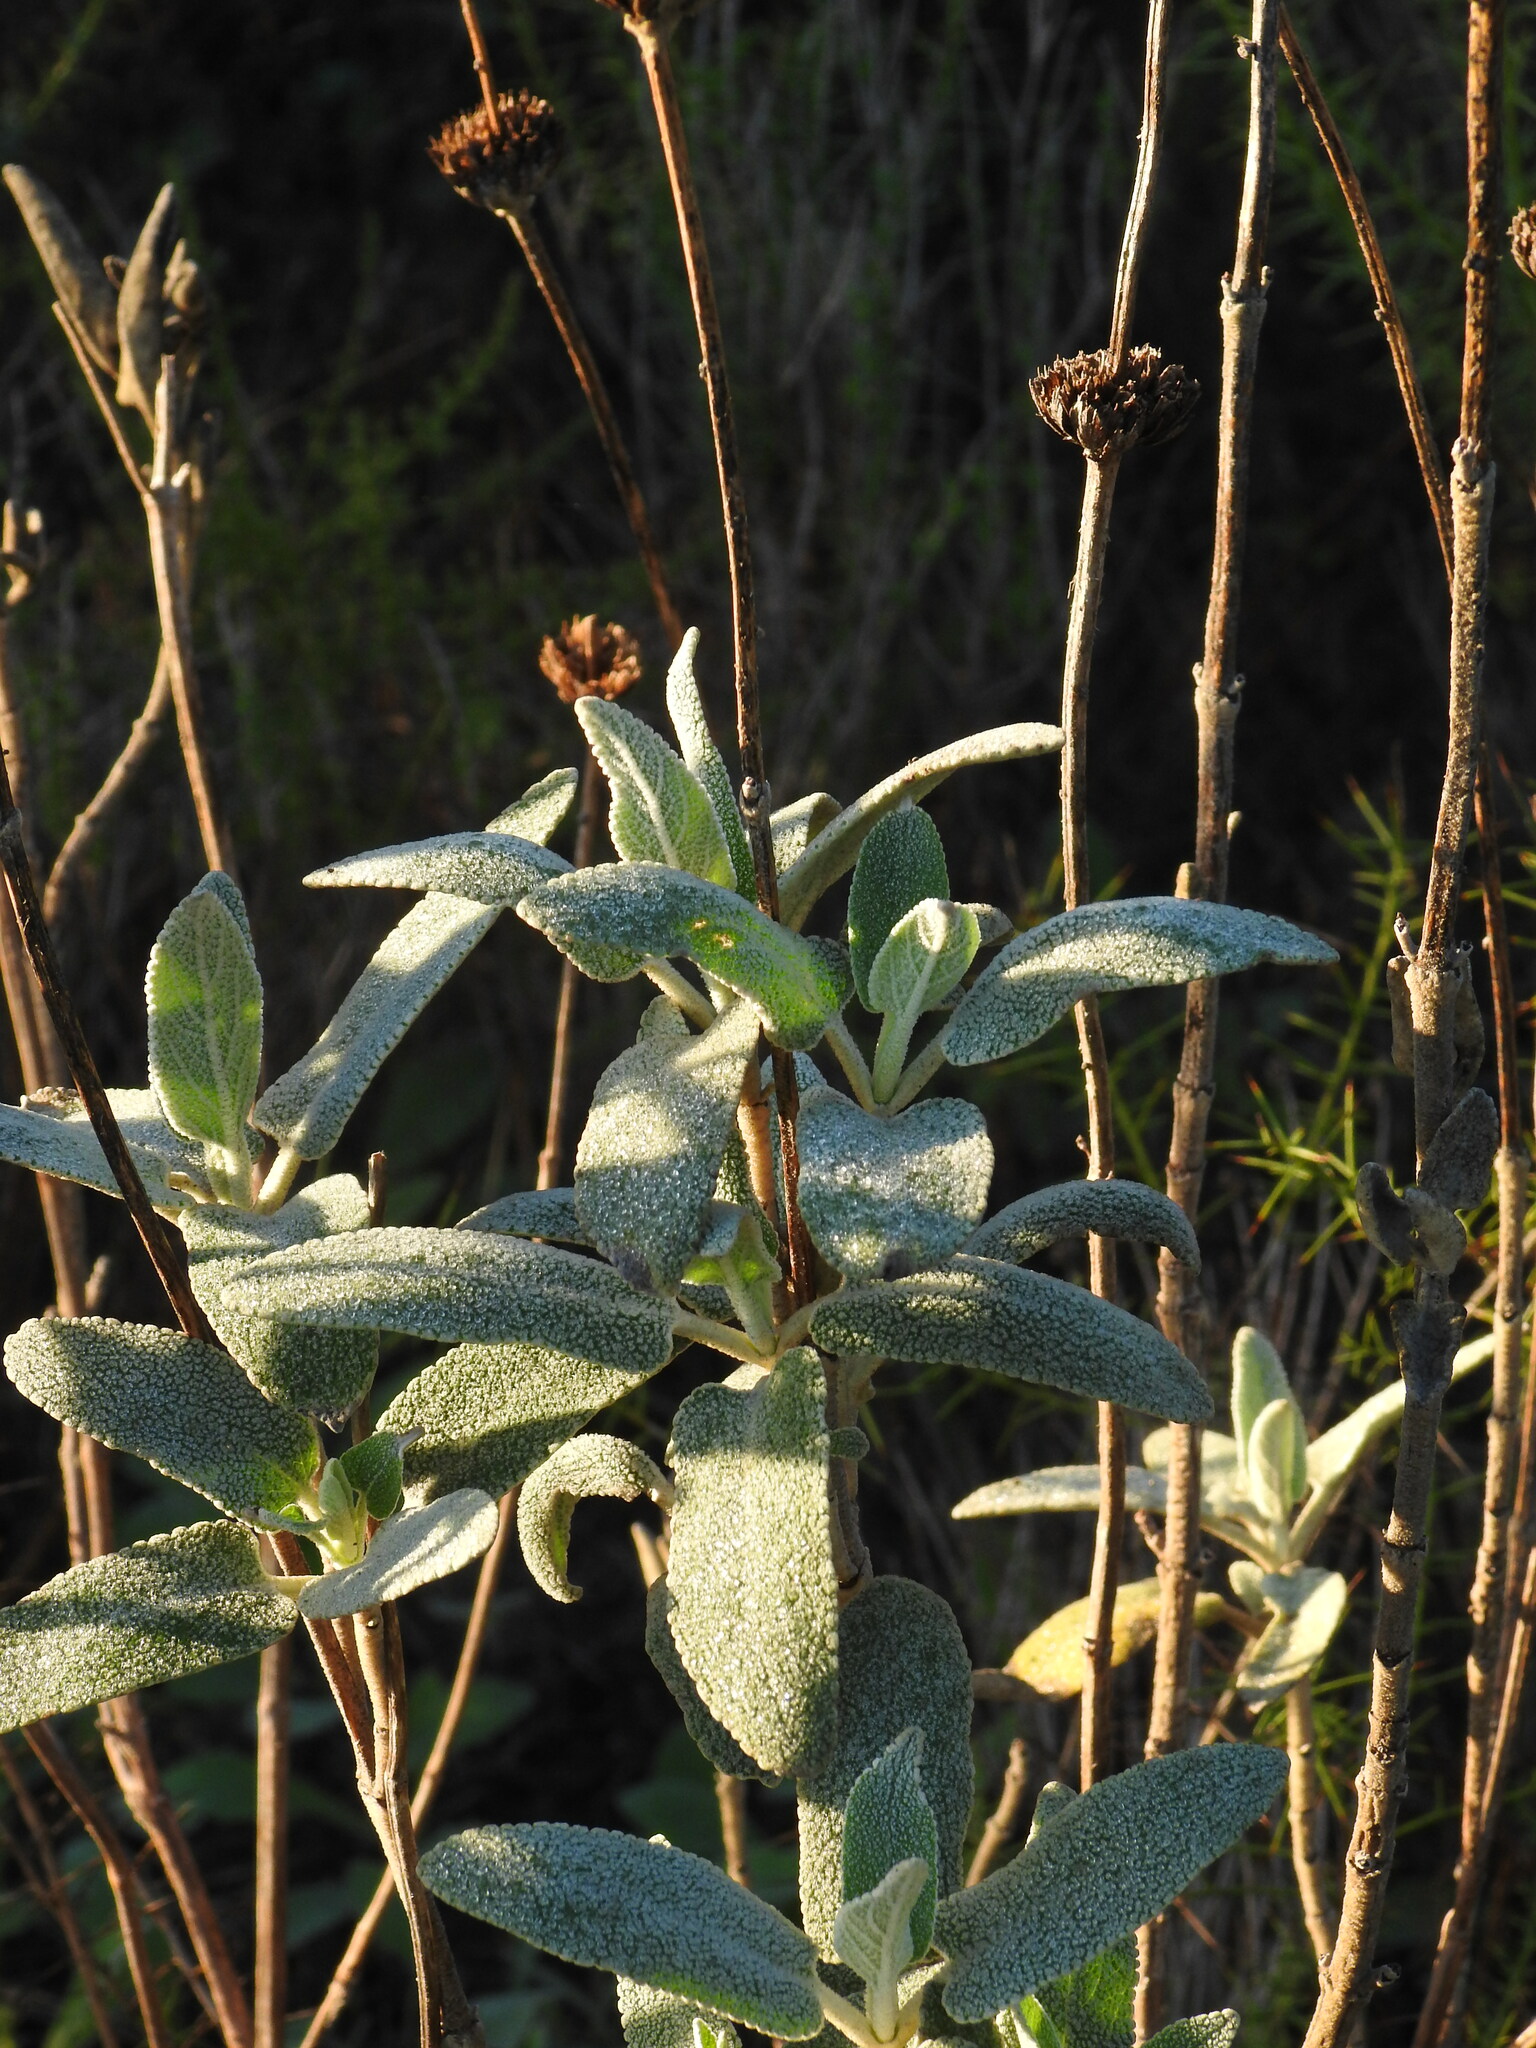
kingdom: Plantae
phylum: Tracheophyta
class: Magnoliopsida
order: Lamiales
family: Lamiaceae
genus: Phlomis
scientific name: Phlomis purpurea
